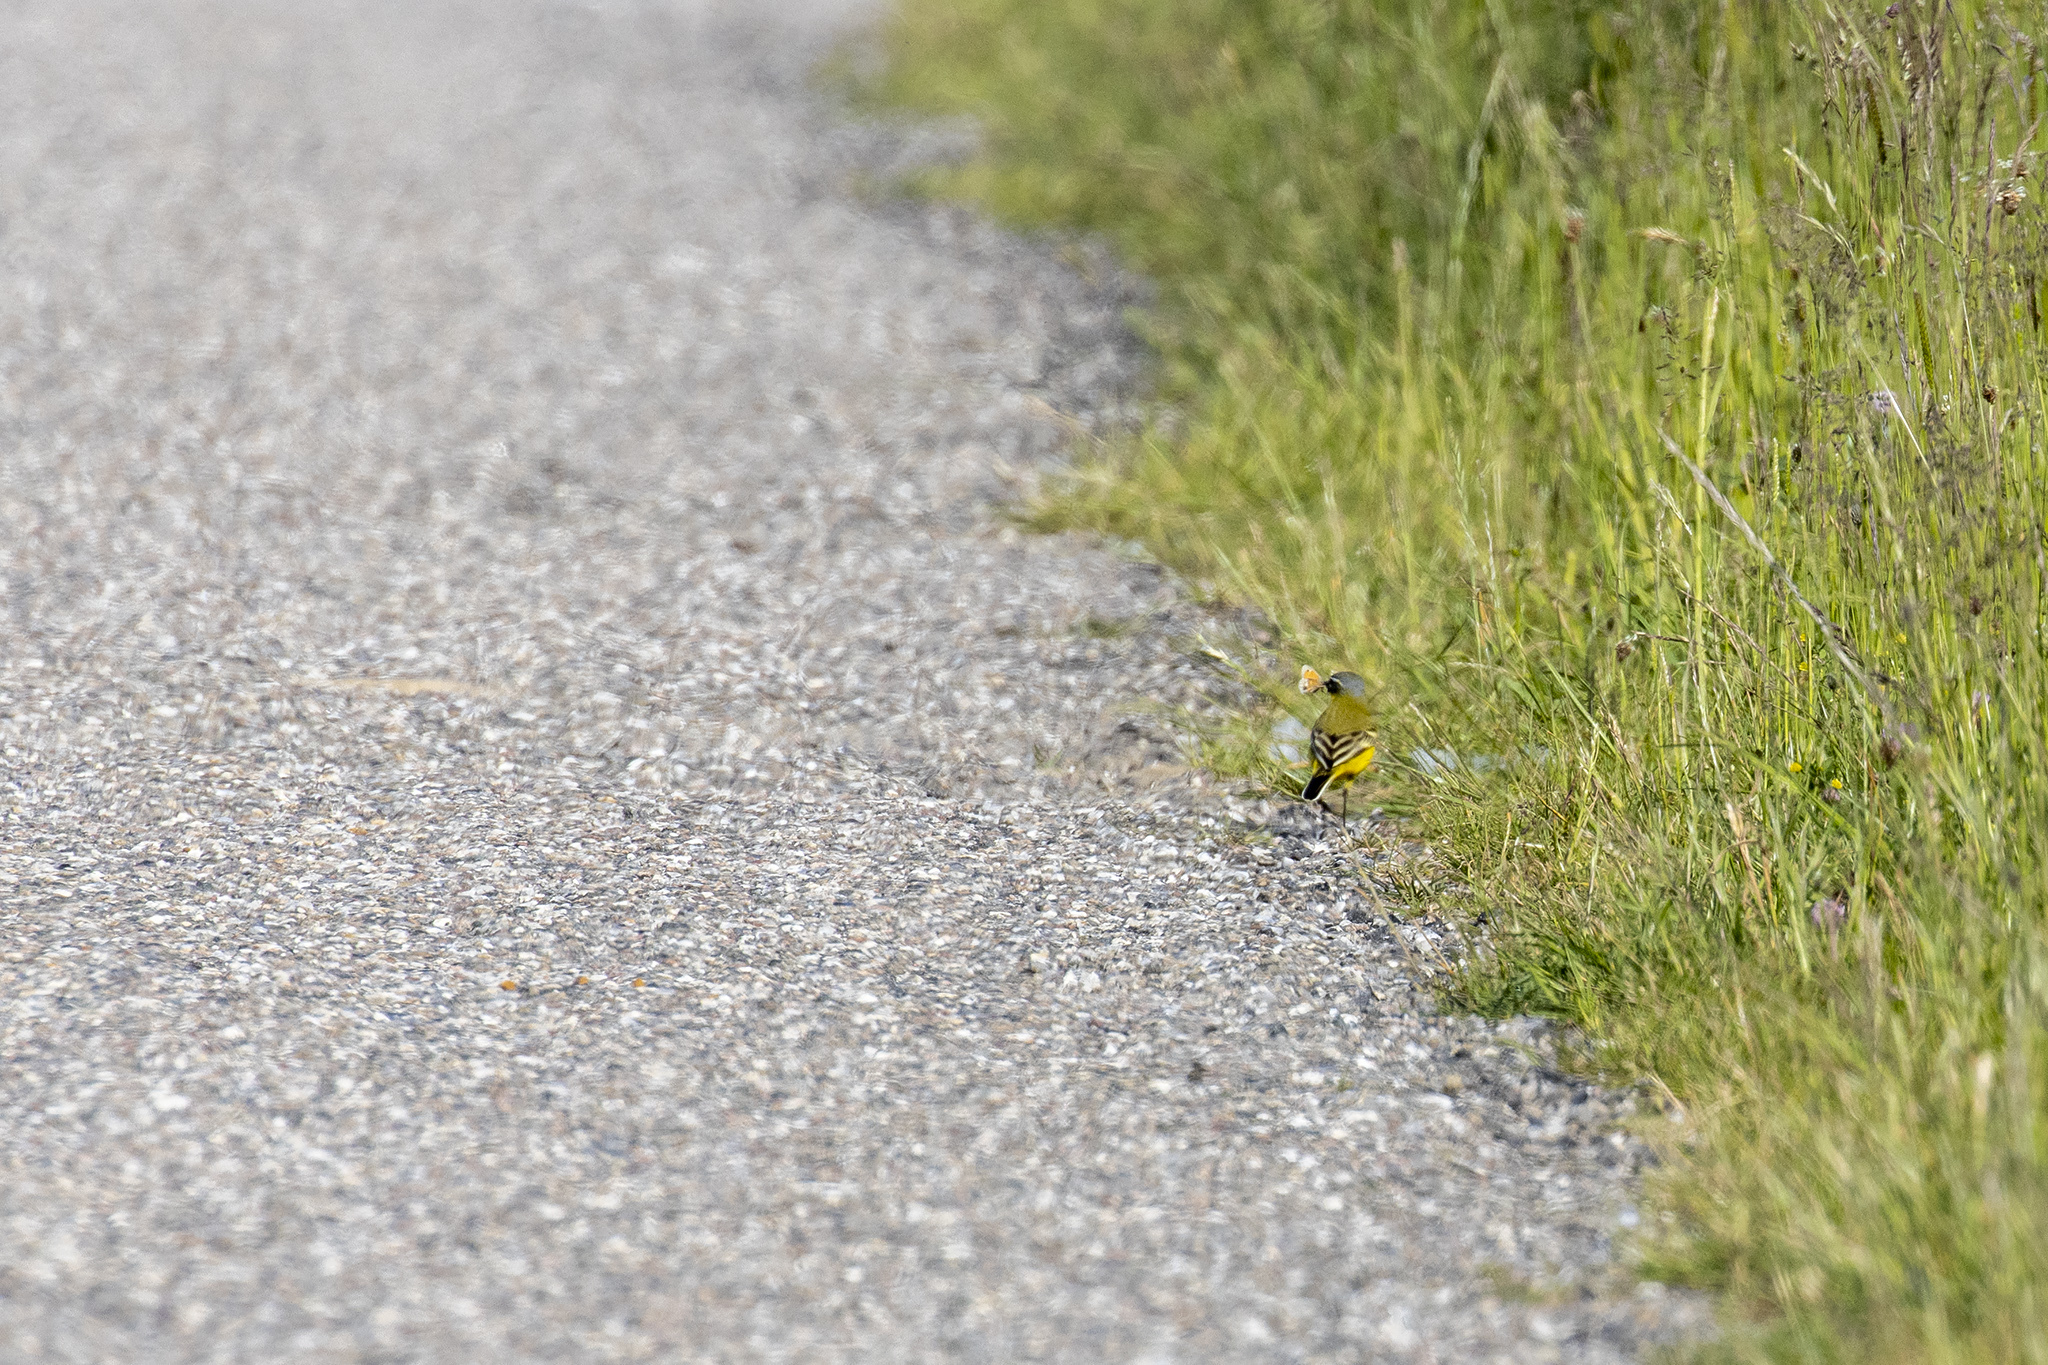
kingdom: Animalia
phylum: Chordata
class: Aves
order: Passeriformes
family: Motacillidae
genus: Motacilla
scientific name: Motacilla flava
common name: Western yellow wagtail
